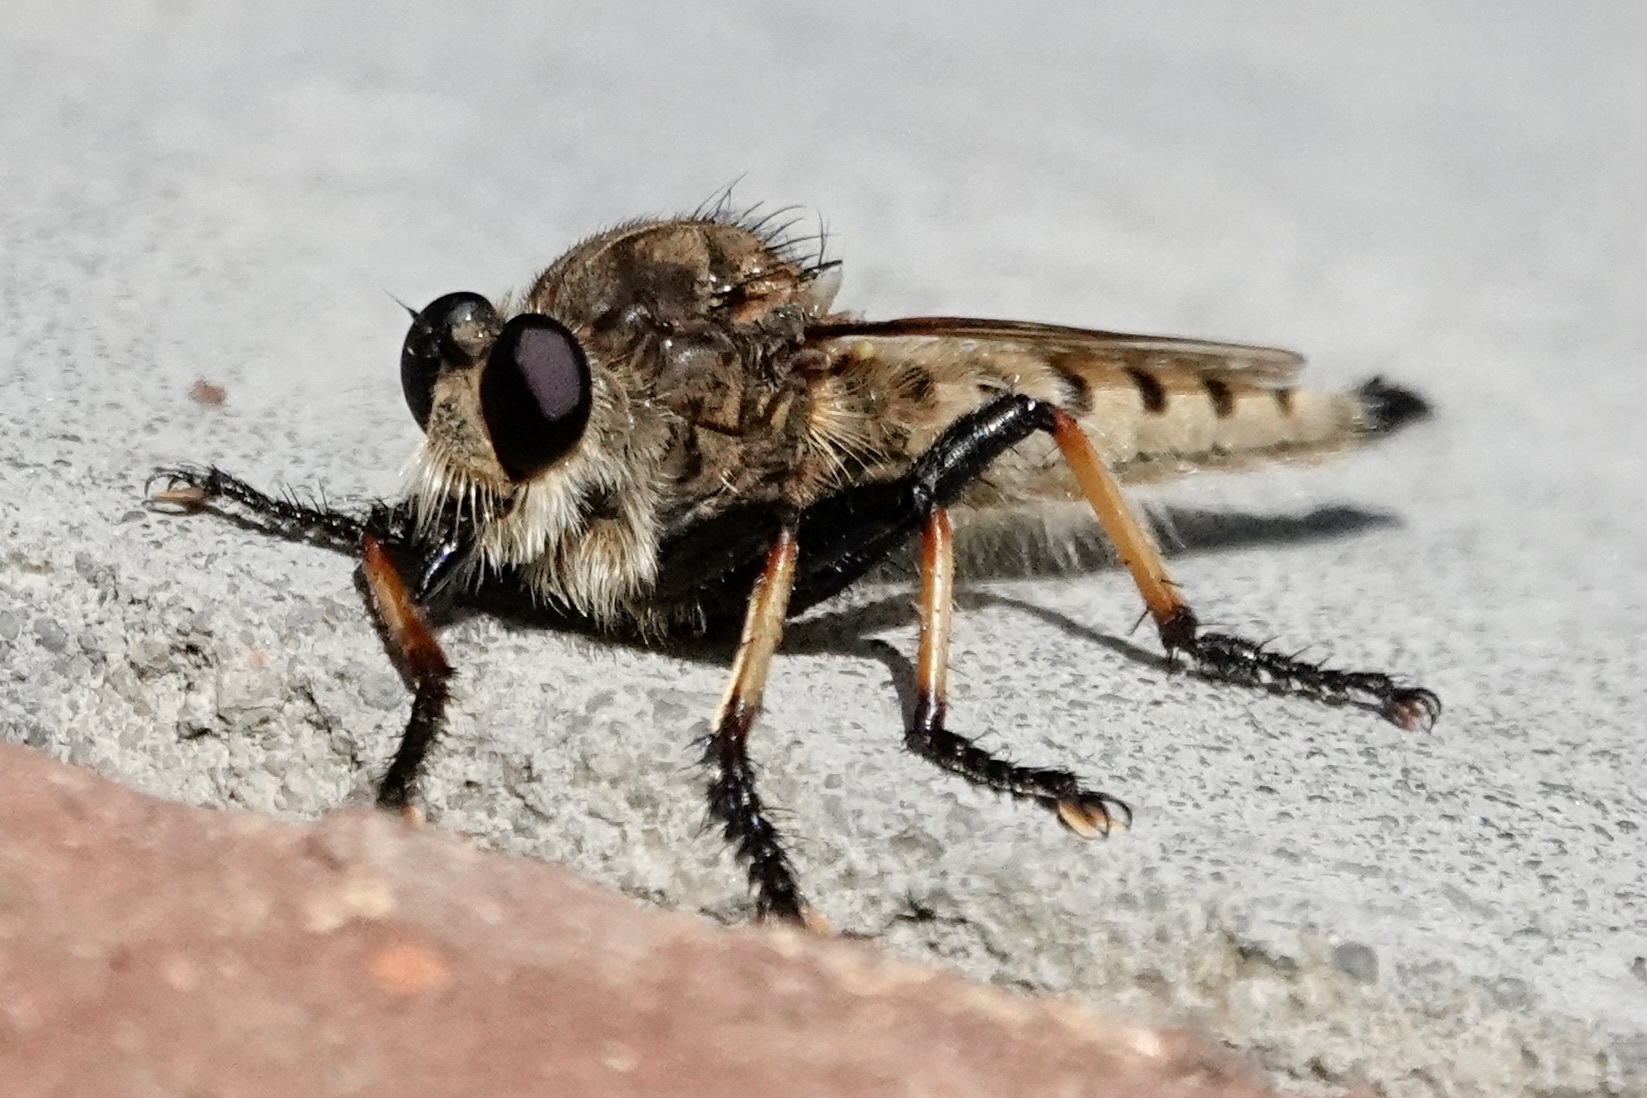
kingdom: Animalia
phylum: Arthropoda
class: Insecta
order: Diptera
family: Asilidae
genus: Promachus
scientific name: Promachus rufipes
